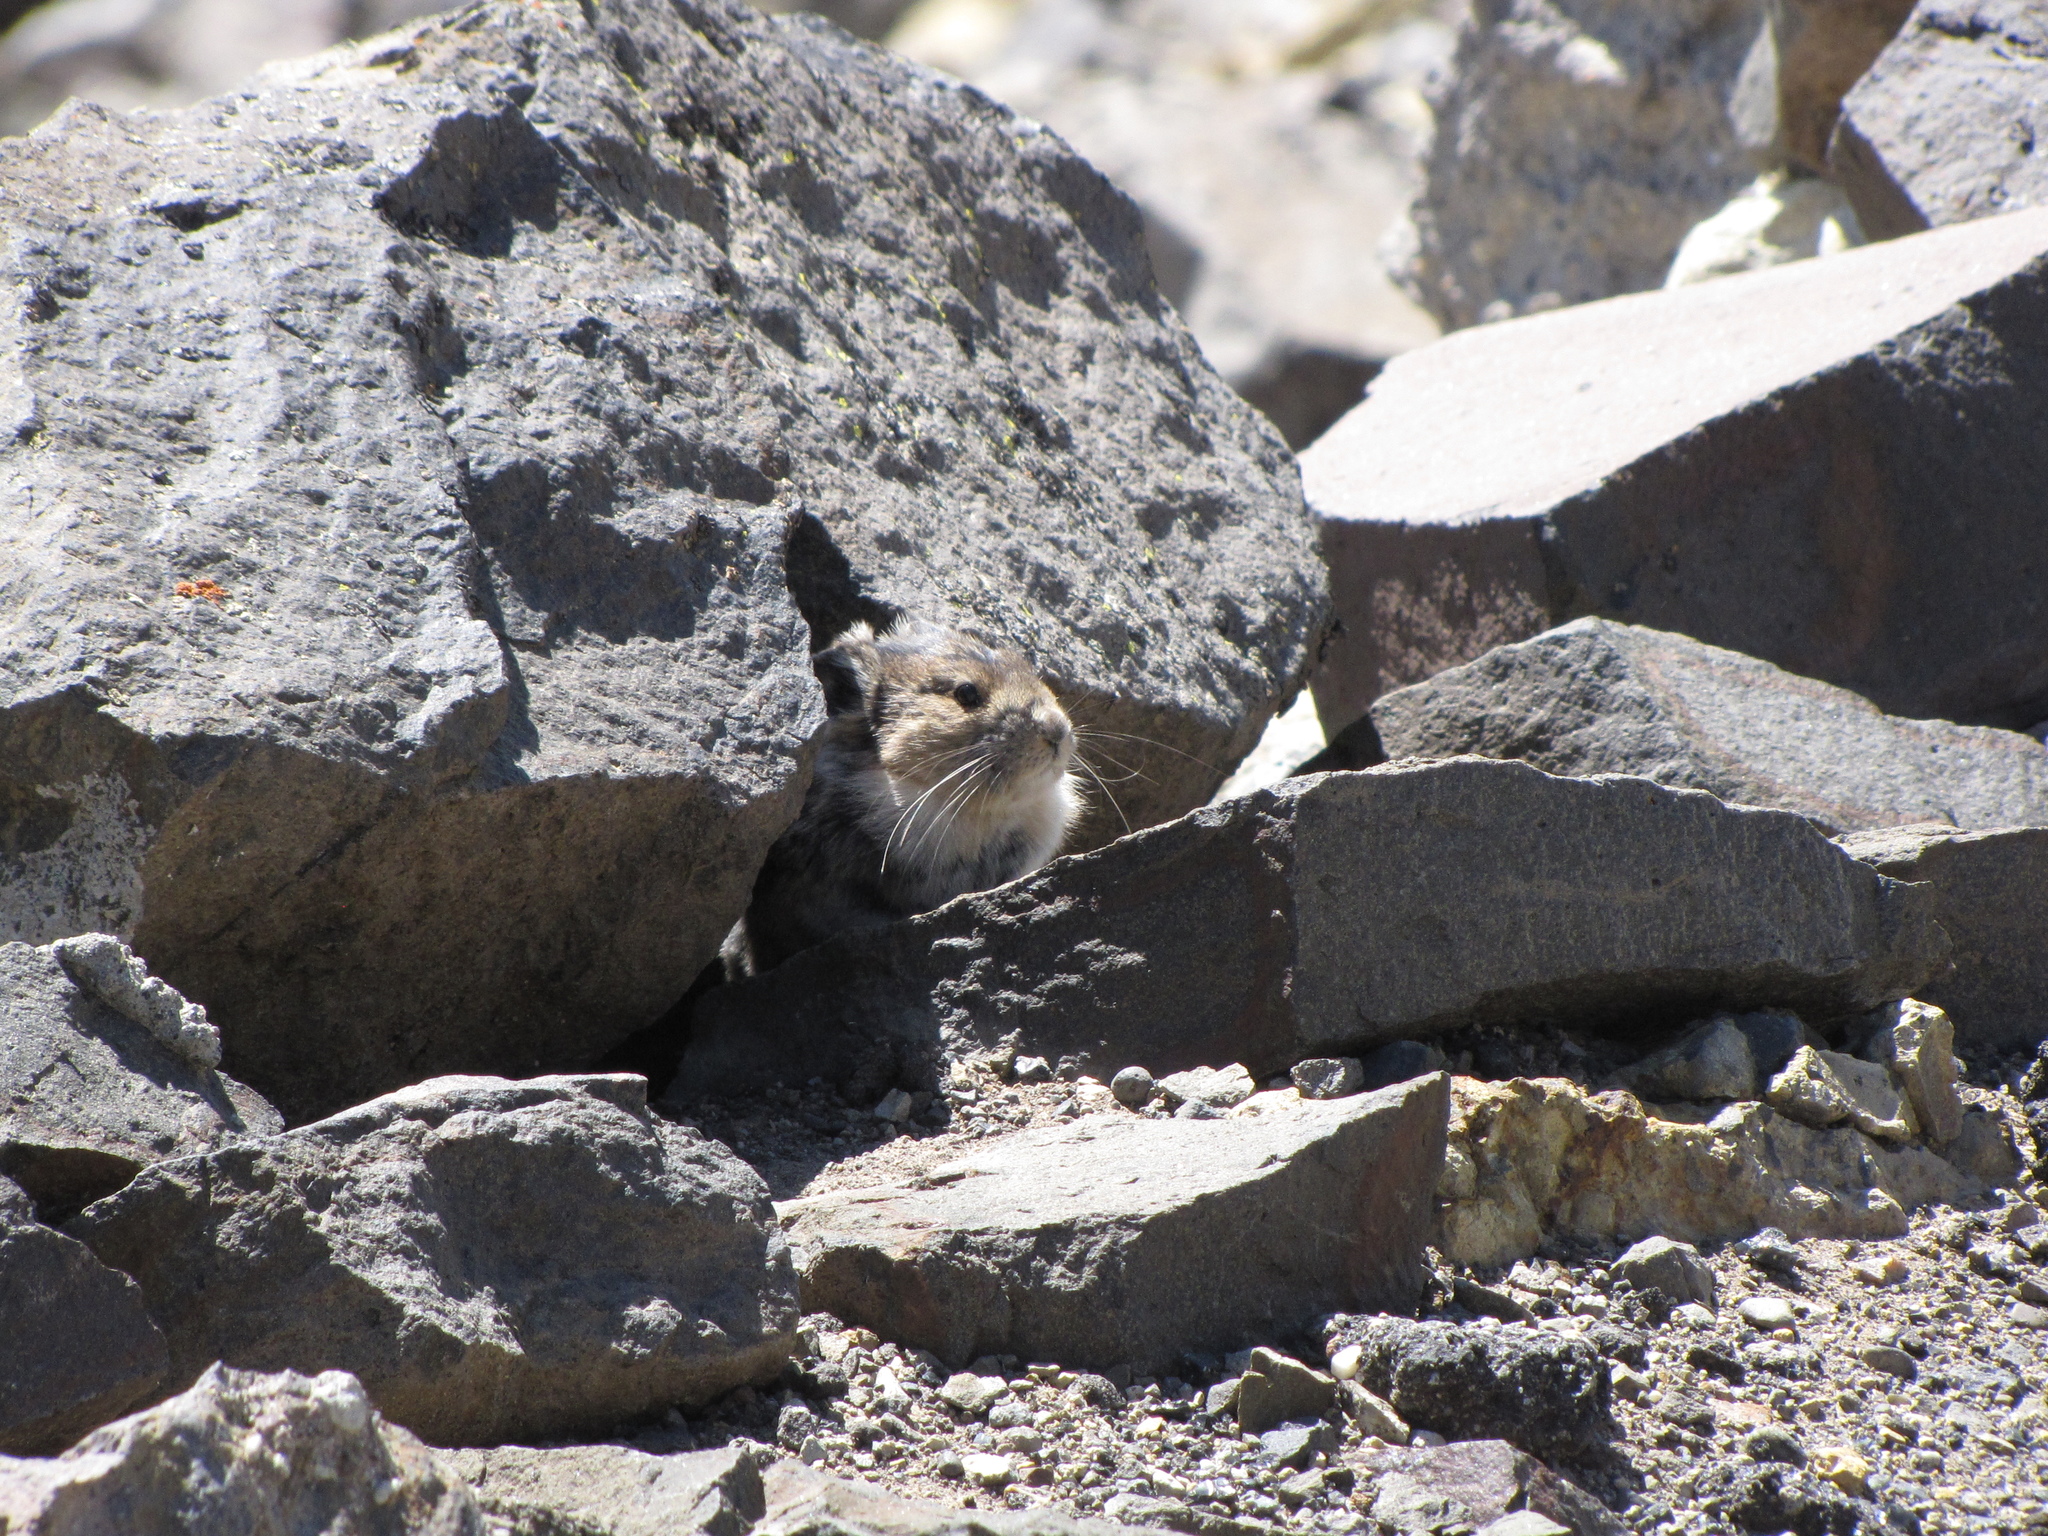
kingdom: Animalia
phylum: Chordata
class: Mammalia
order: Lagomorpha
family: Ochotonidae
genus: Ochotona
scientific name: Ochotona princeps
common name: American pika
